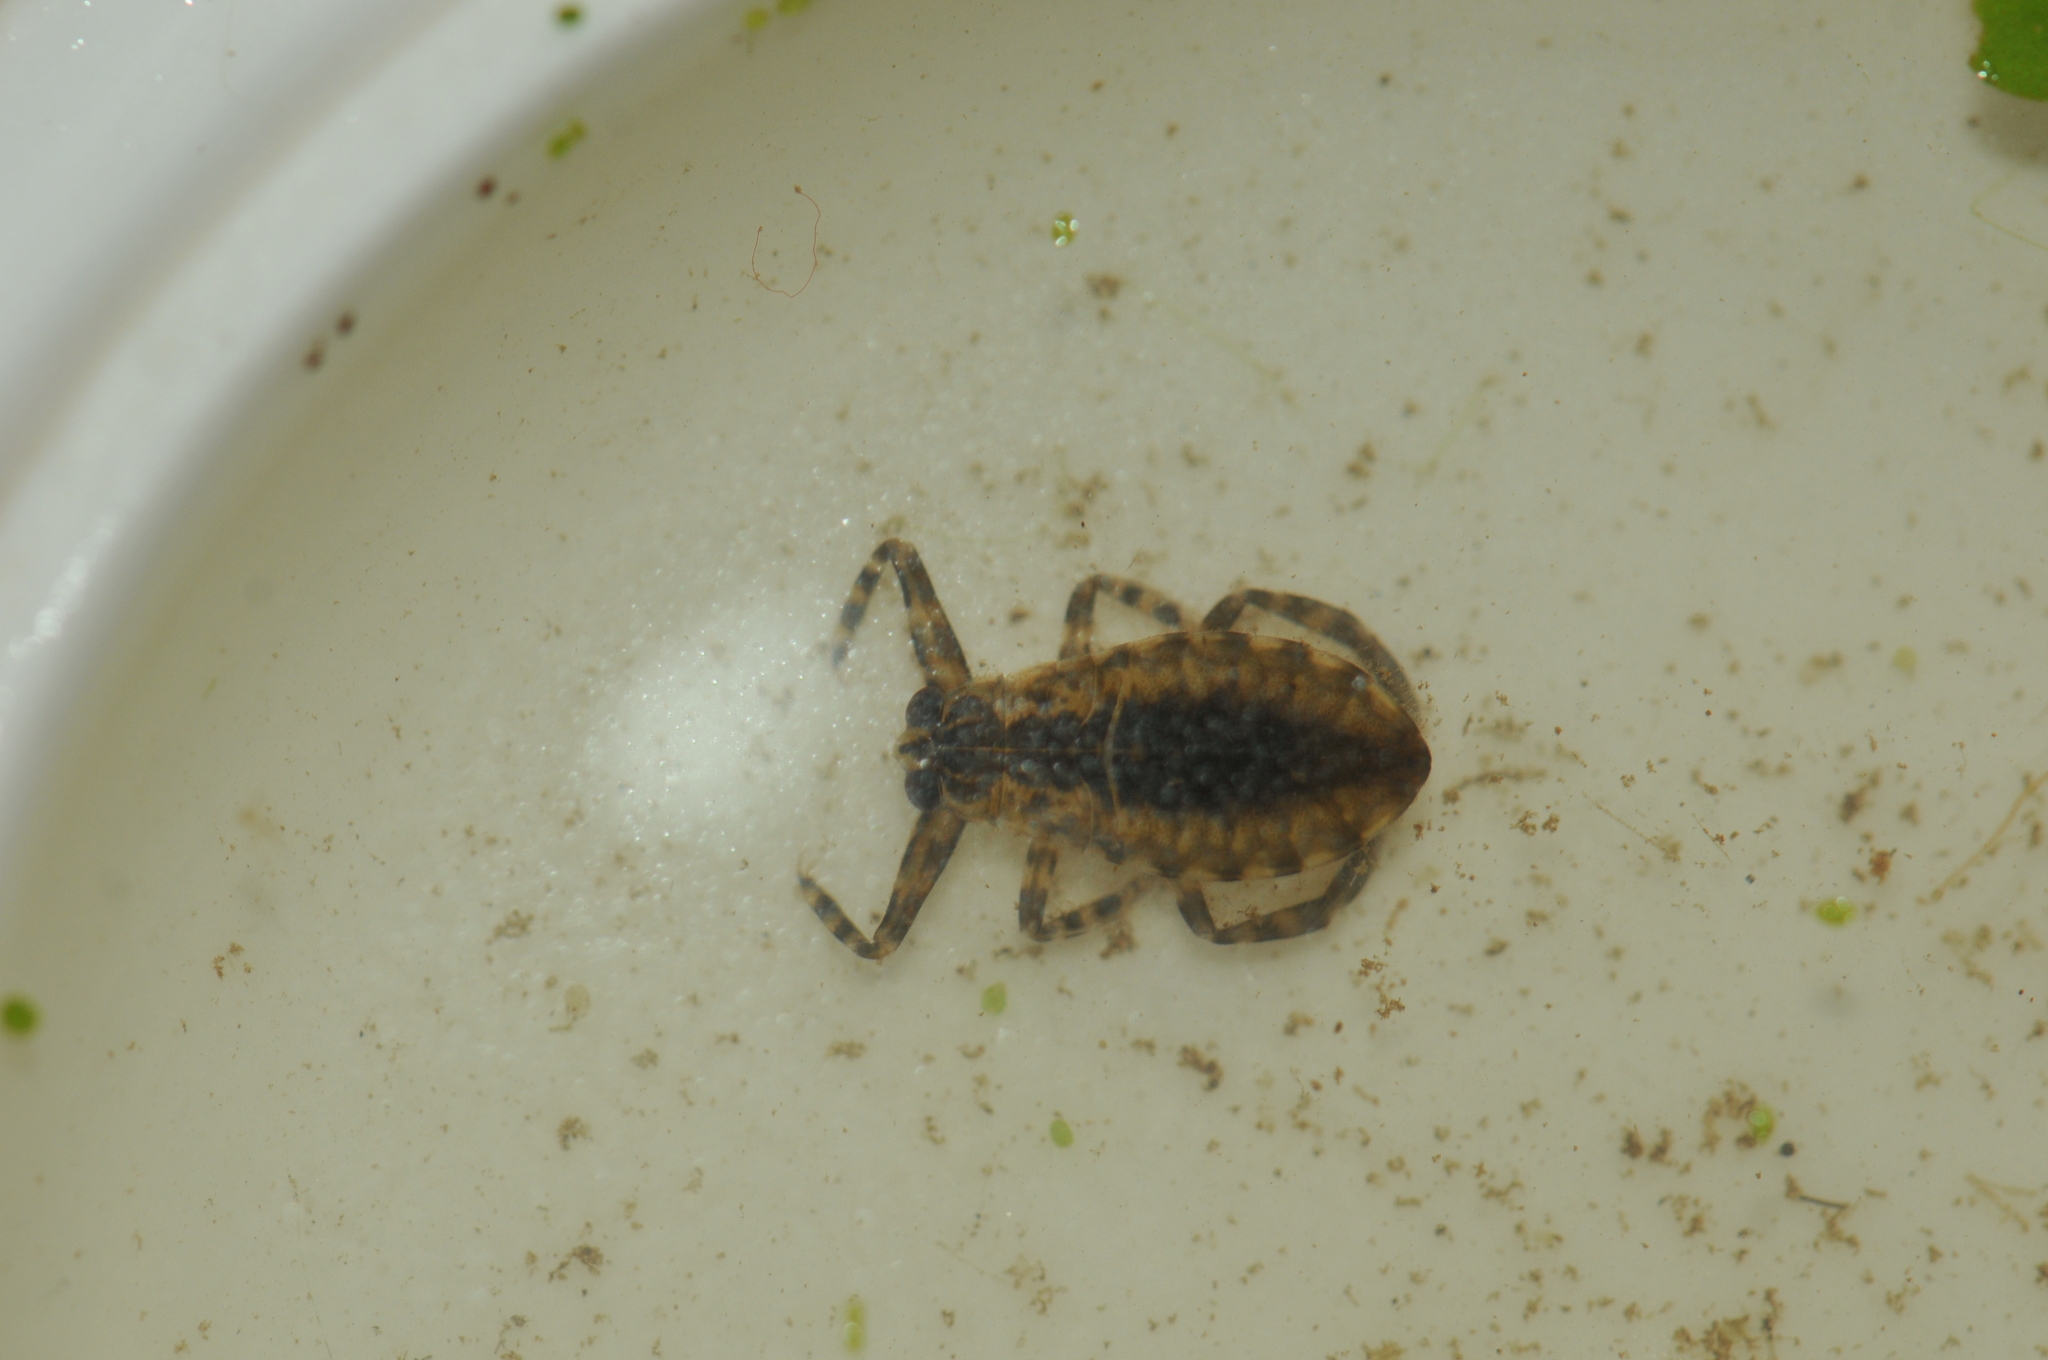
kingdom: Animalia
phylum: Arthropoda
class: Insecta
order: Hemiptera
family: Belostomatidae
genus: Lethocerus
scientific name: Lethocerus indicus
